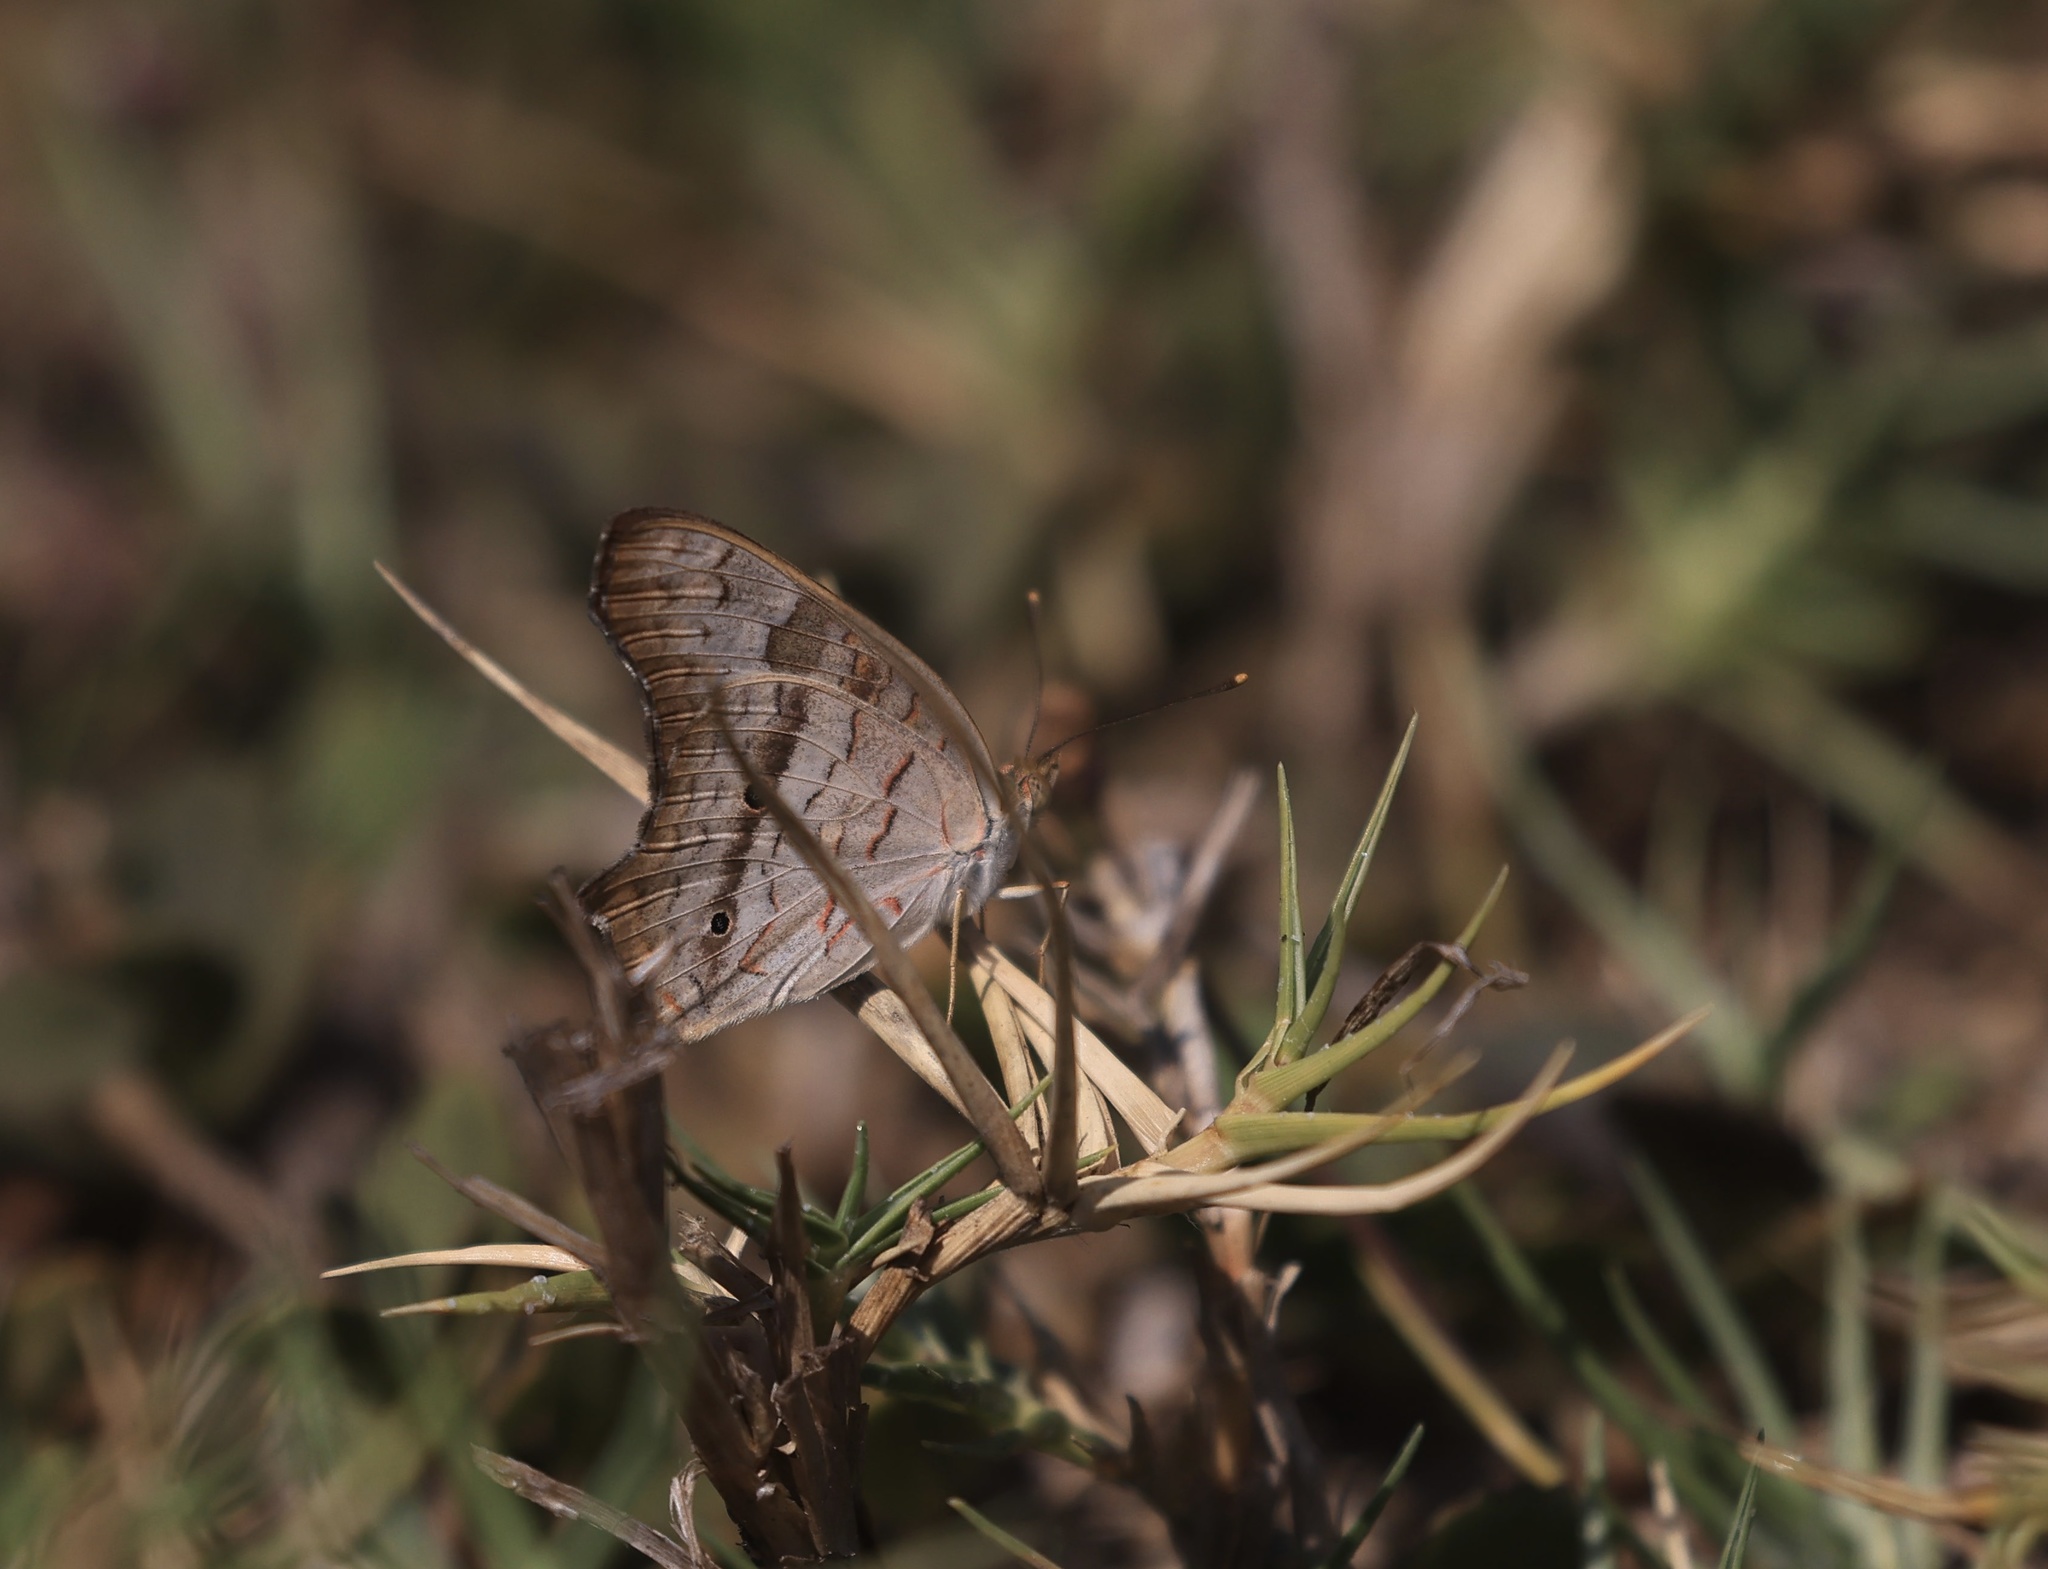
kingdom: Animalia
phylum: Arthropoda
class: Insecta
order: Lepidoptera
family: Nymphalidae
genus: Anartia
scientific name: Anartia jatrophae
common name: White peacock
